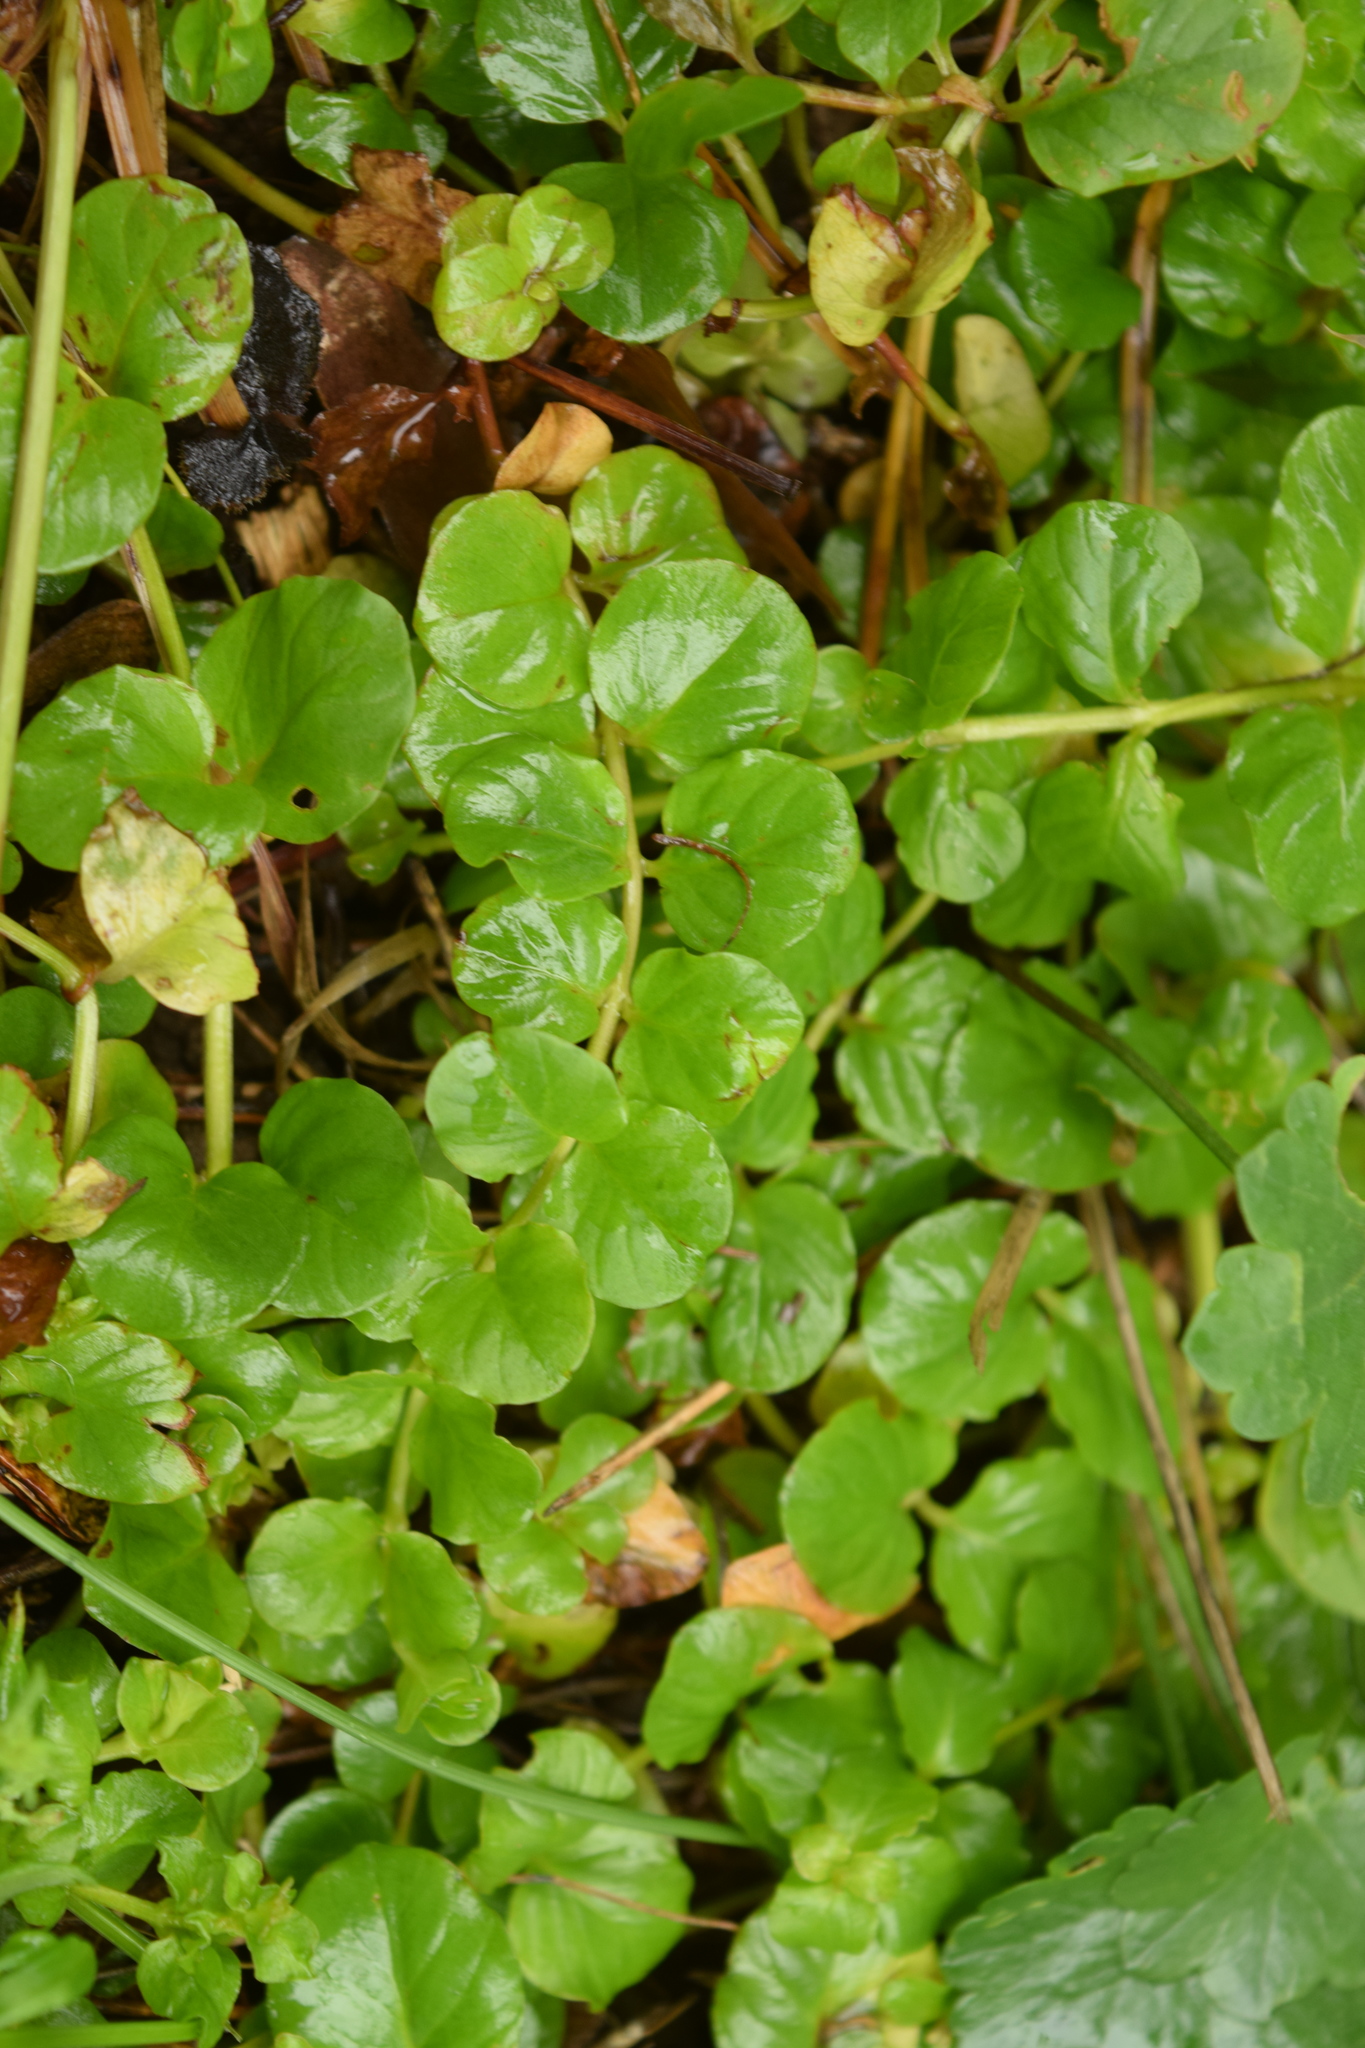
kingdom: Plantae
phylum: Tracheophyta
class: Magnoliopsida
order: Ericales
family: Primulaceae
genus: Lysimachia
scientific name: Lysimachia nummularia
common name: Moneywort
